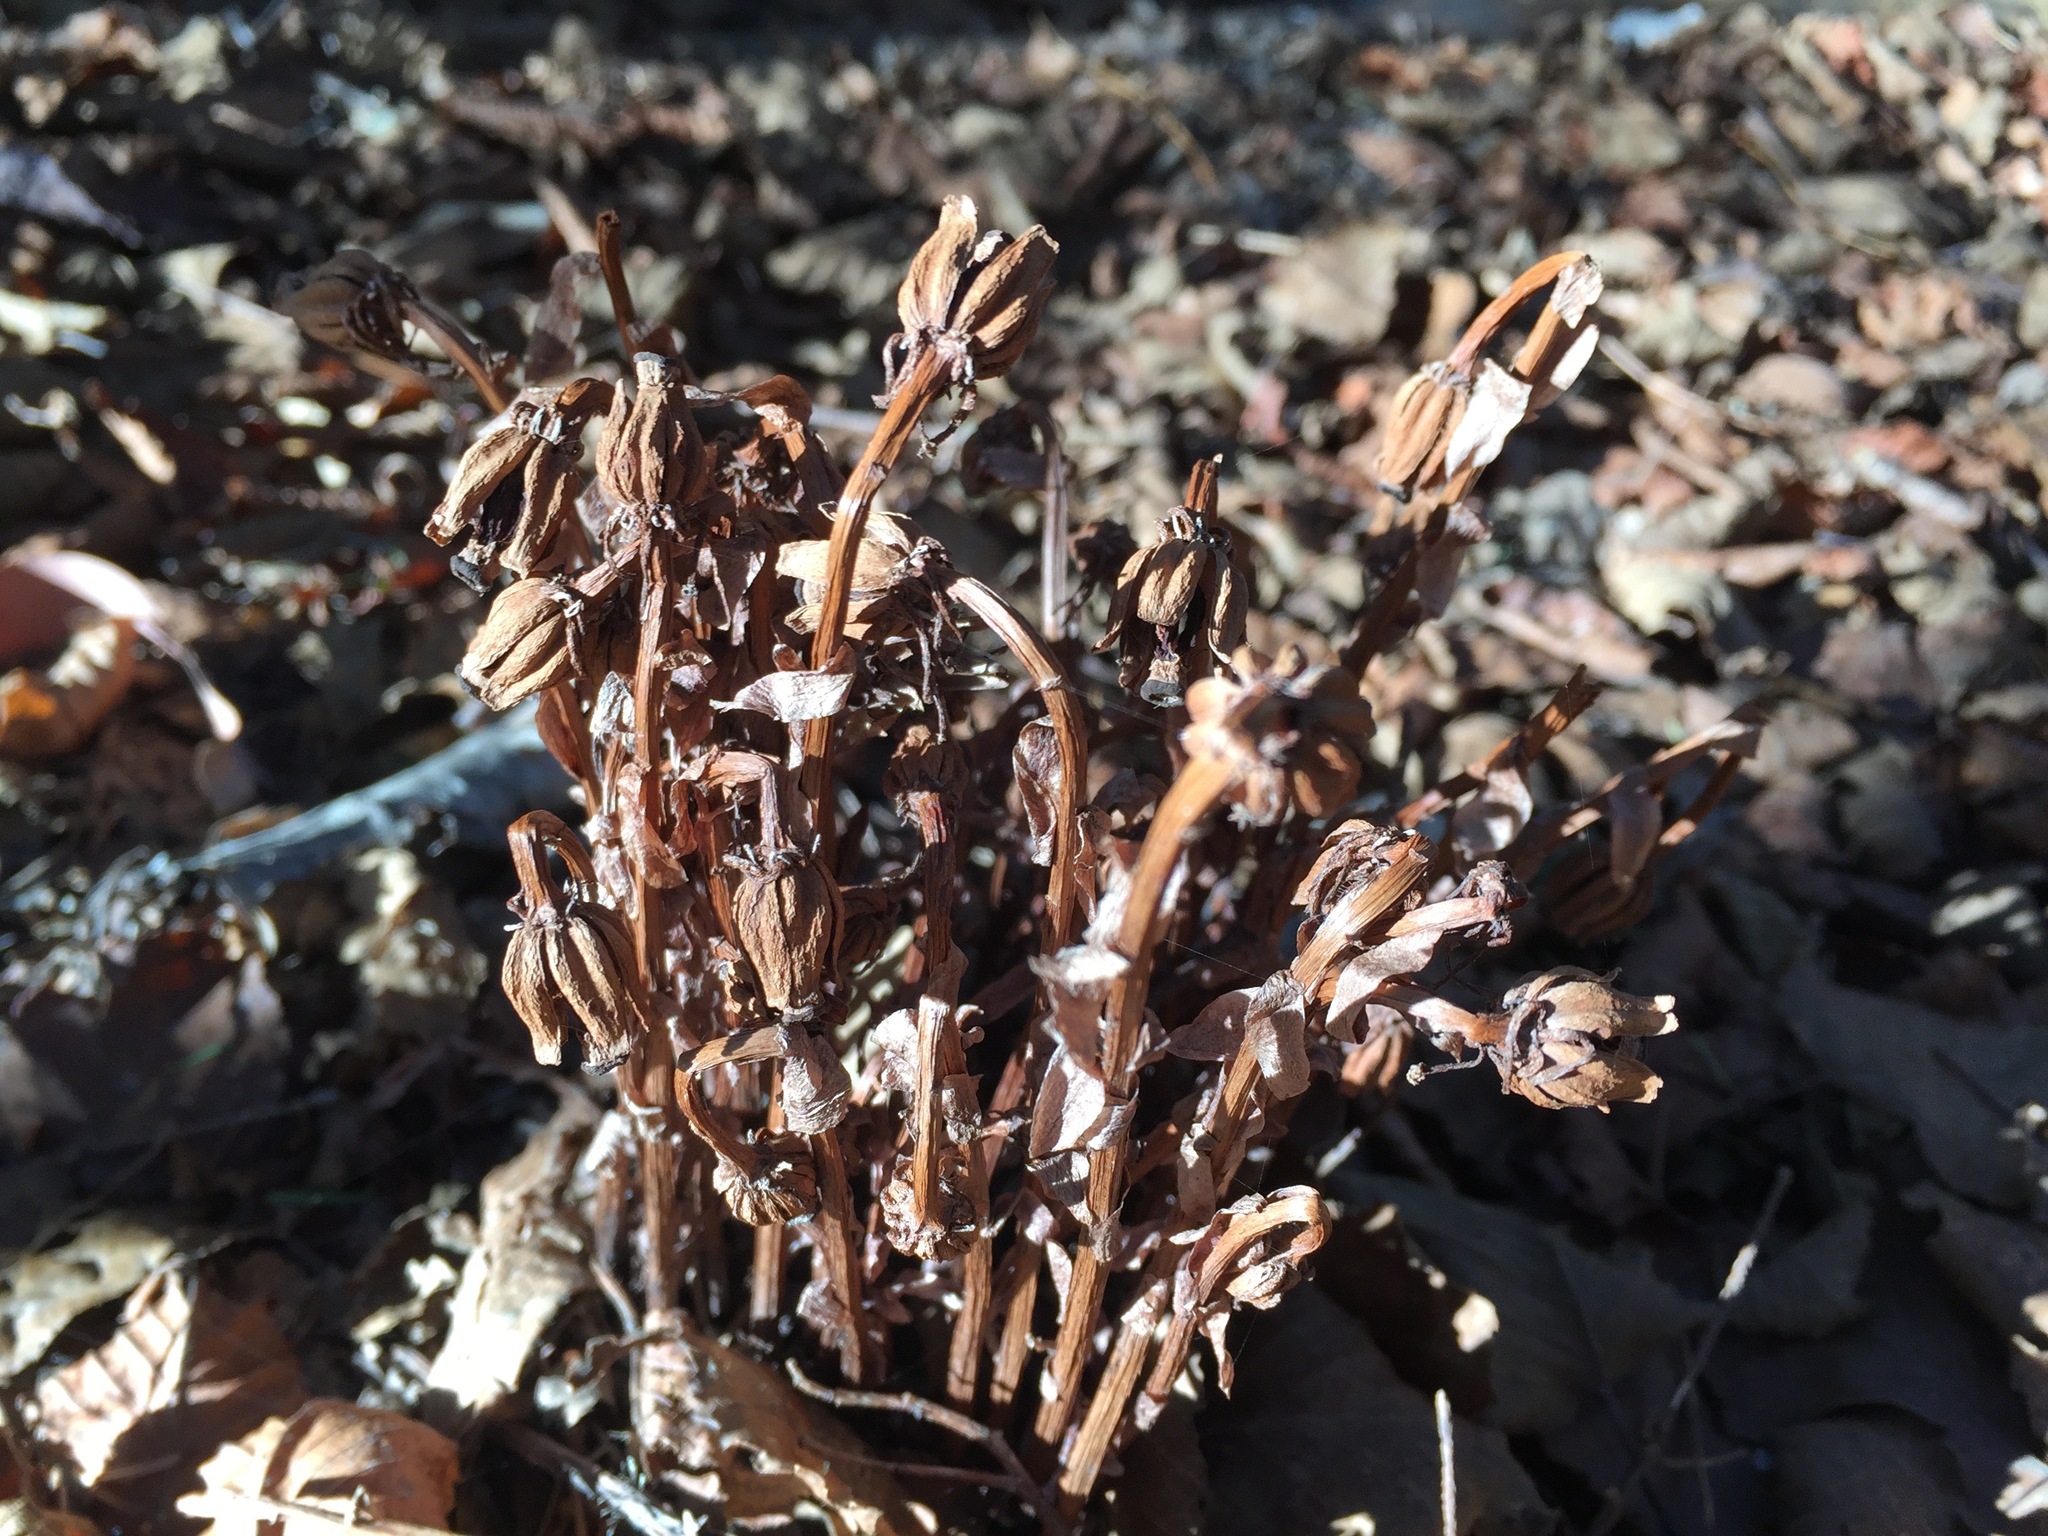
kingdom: Plantae
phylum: Tracheophyta
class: Magnoliopsida
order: Ericales
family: Ericaceae
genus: Monotropa
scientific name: Monotropa uniflora
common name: Convulsion root
